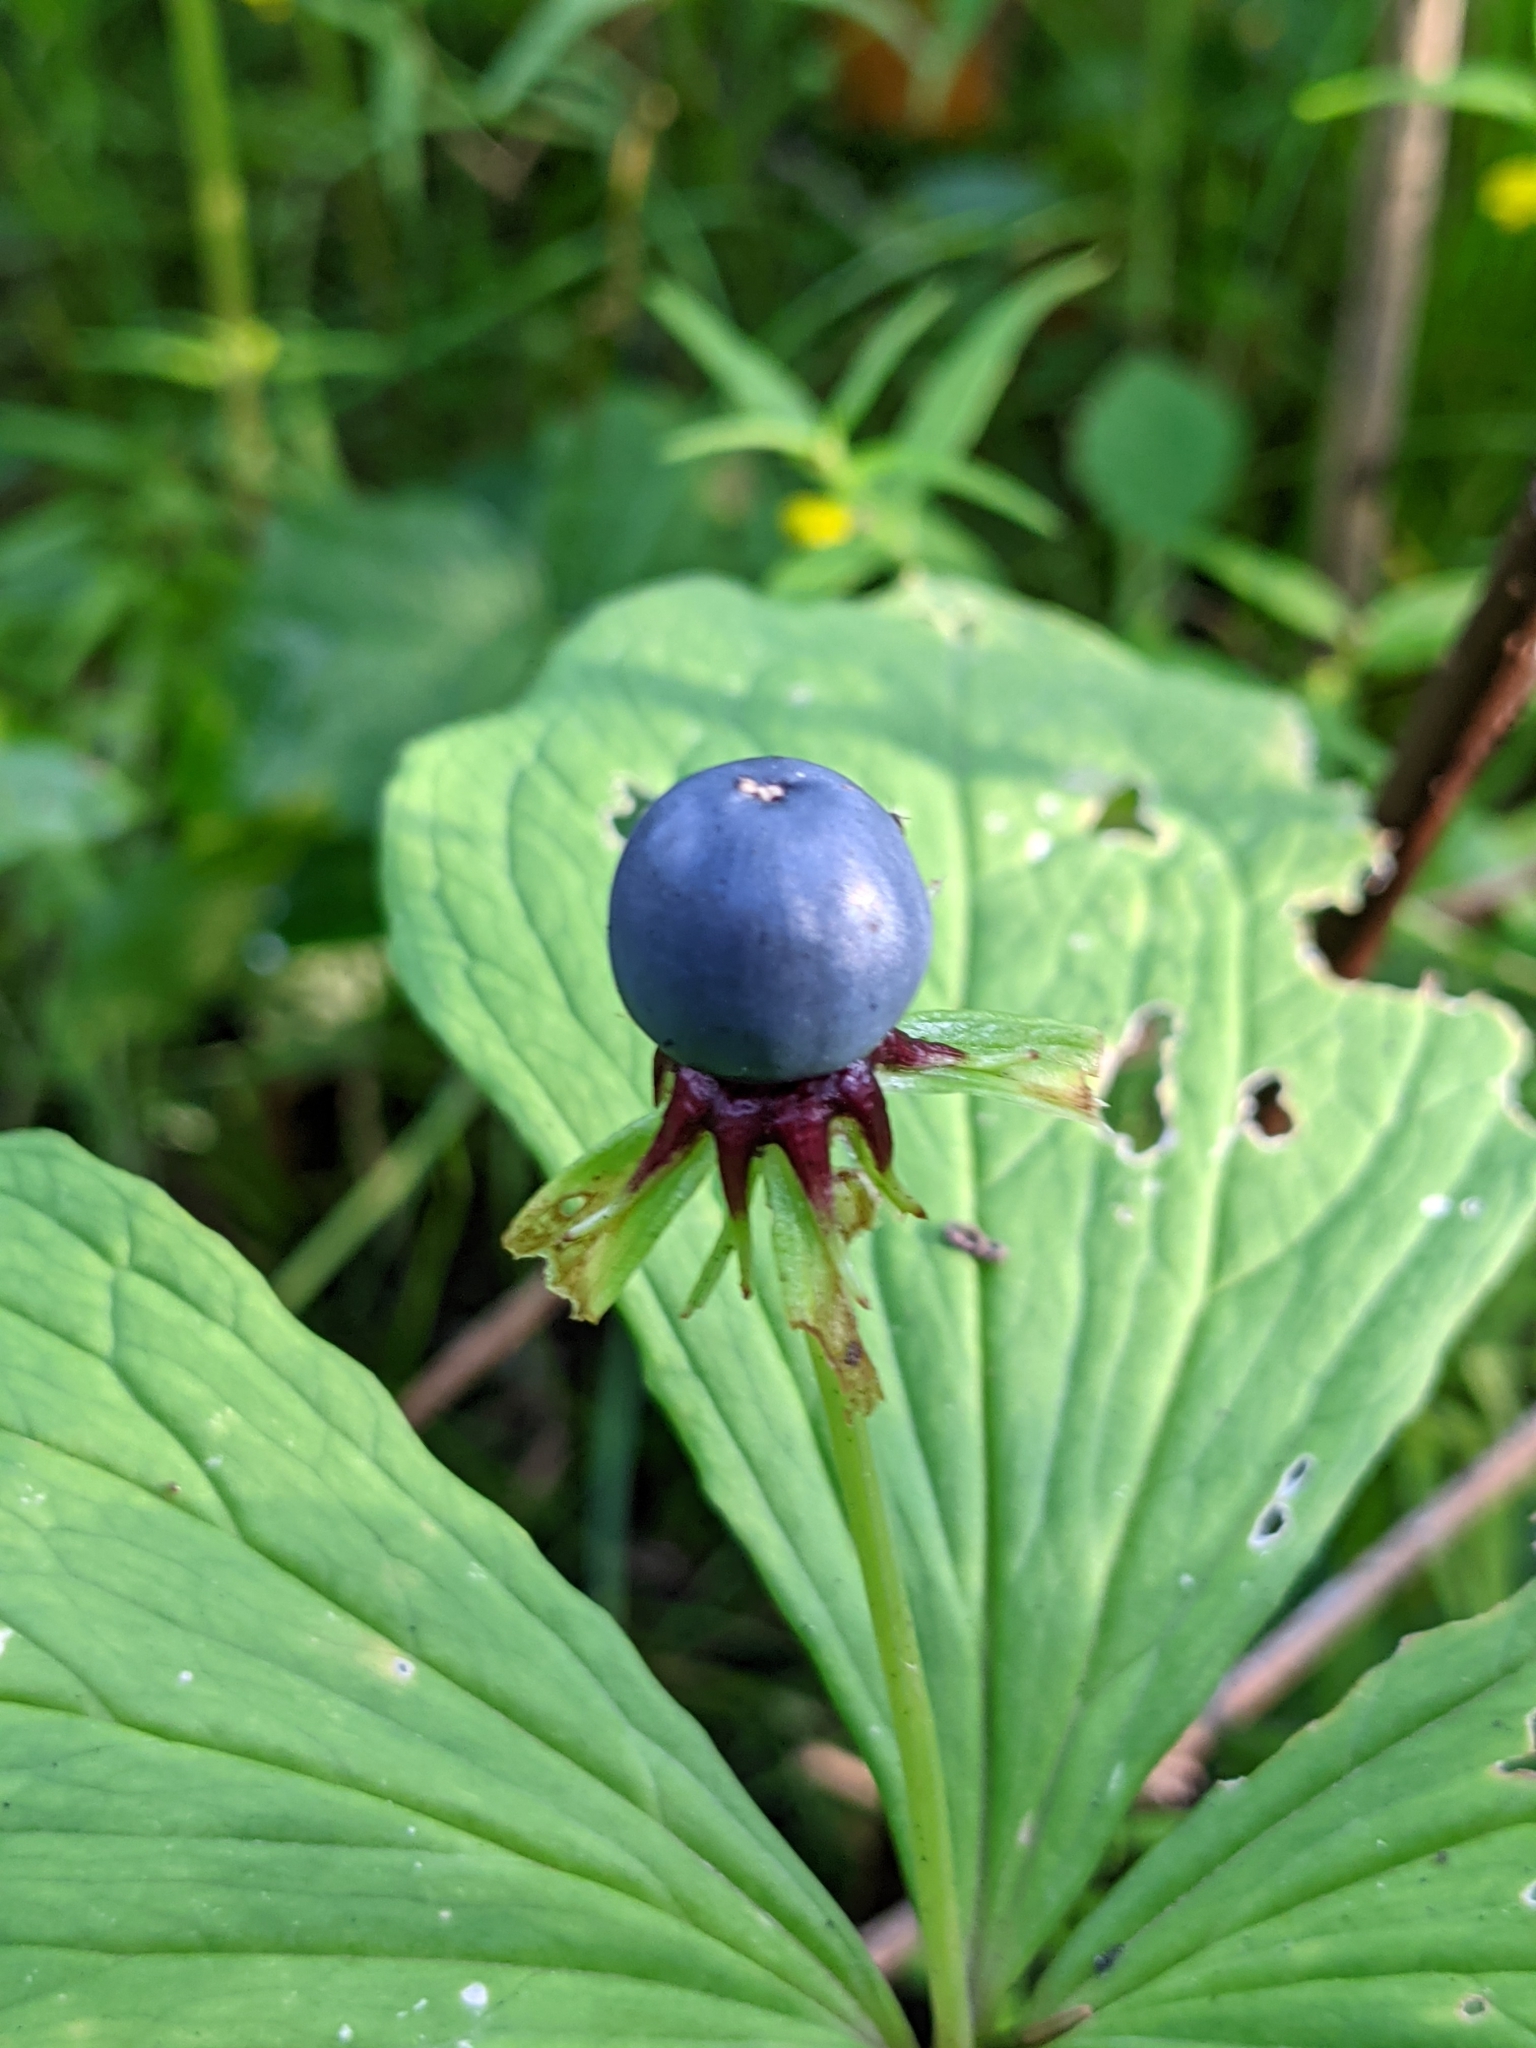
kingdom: Plantae
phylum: Tracheophyta
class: Liliopsida
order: Liliales
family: Melanthiaceae
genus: Paris
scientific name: Paris quadrifolia
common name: Herb-paris
